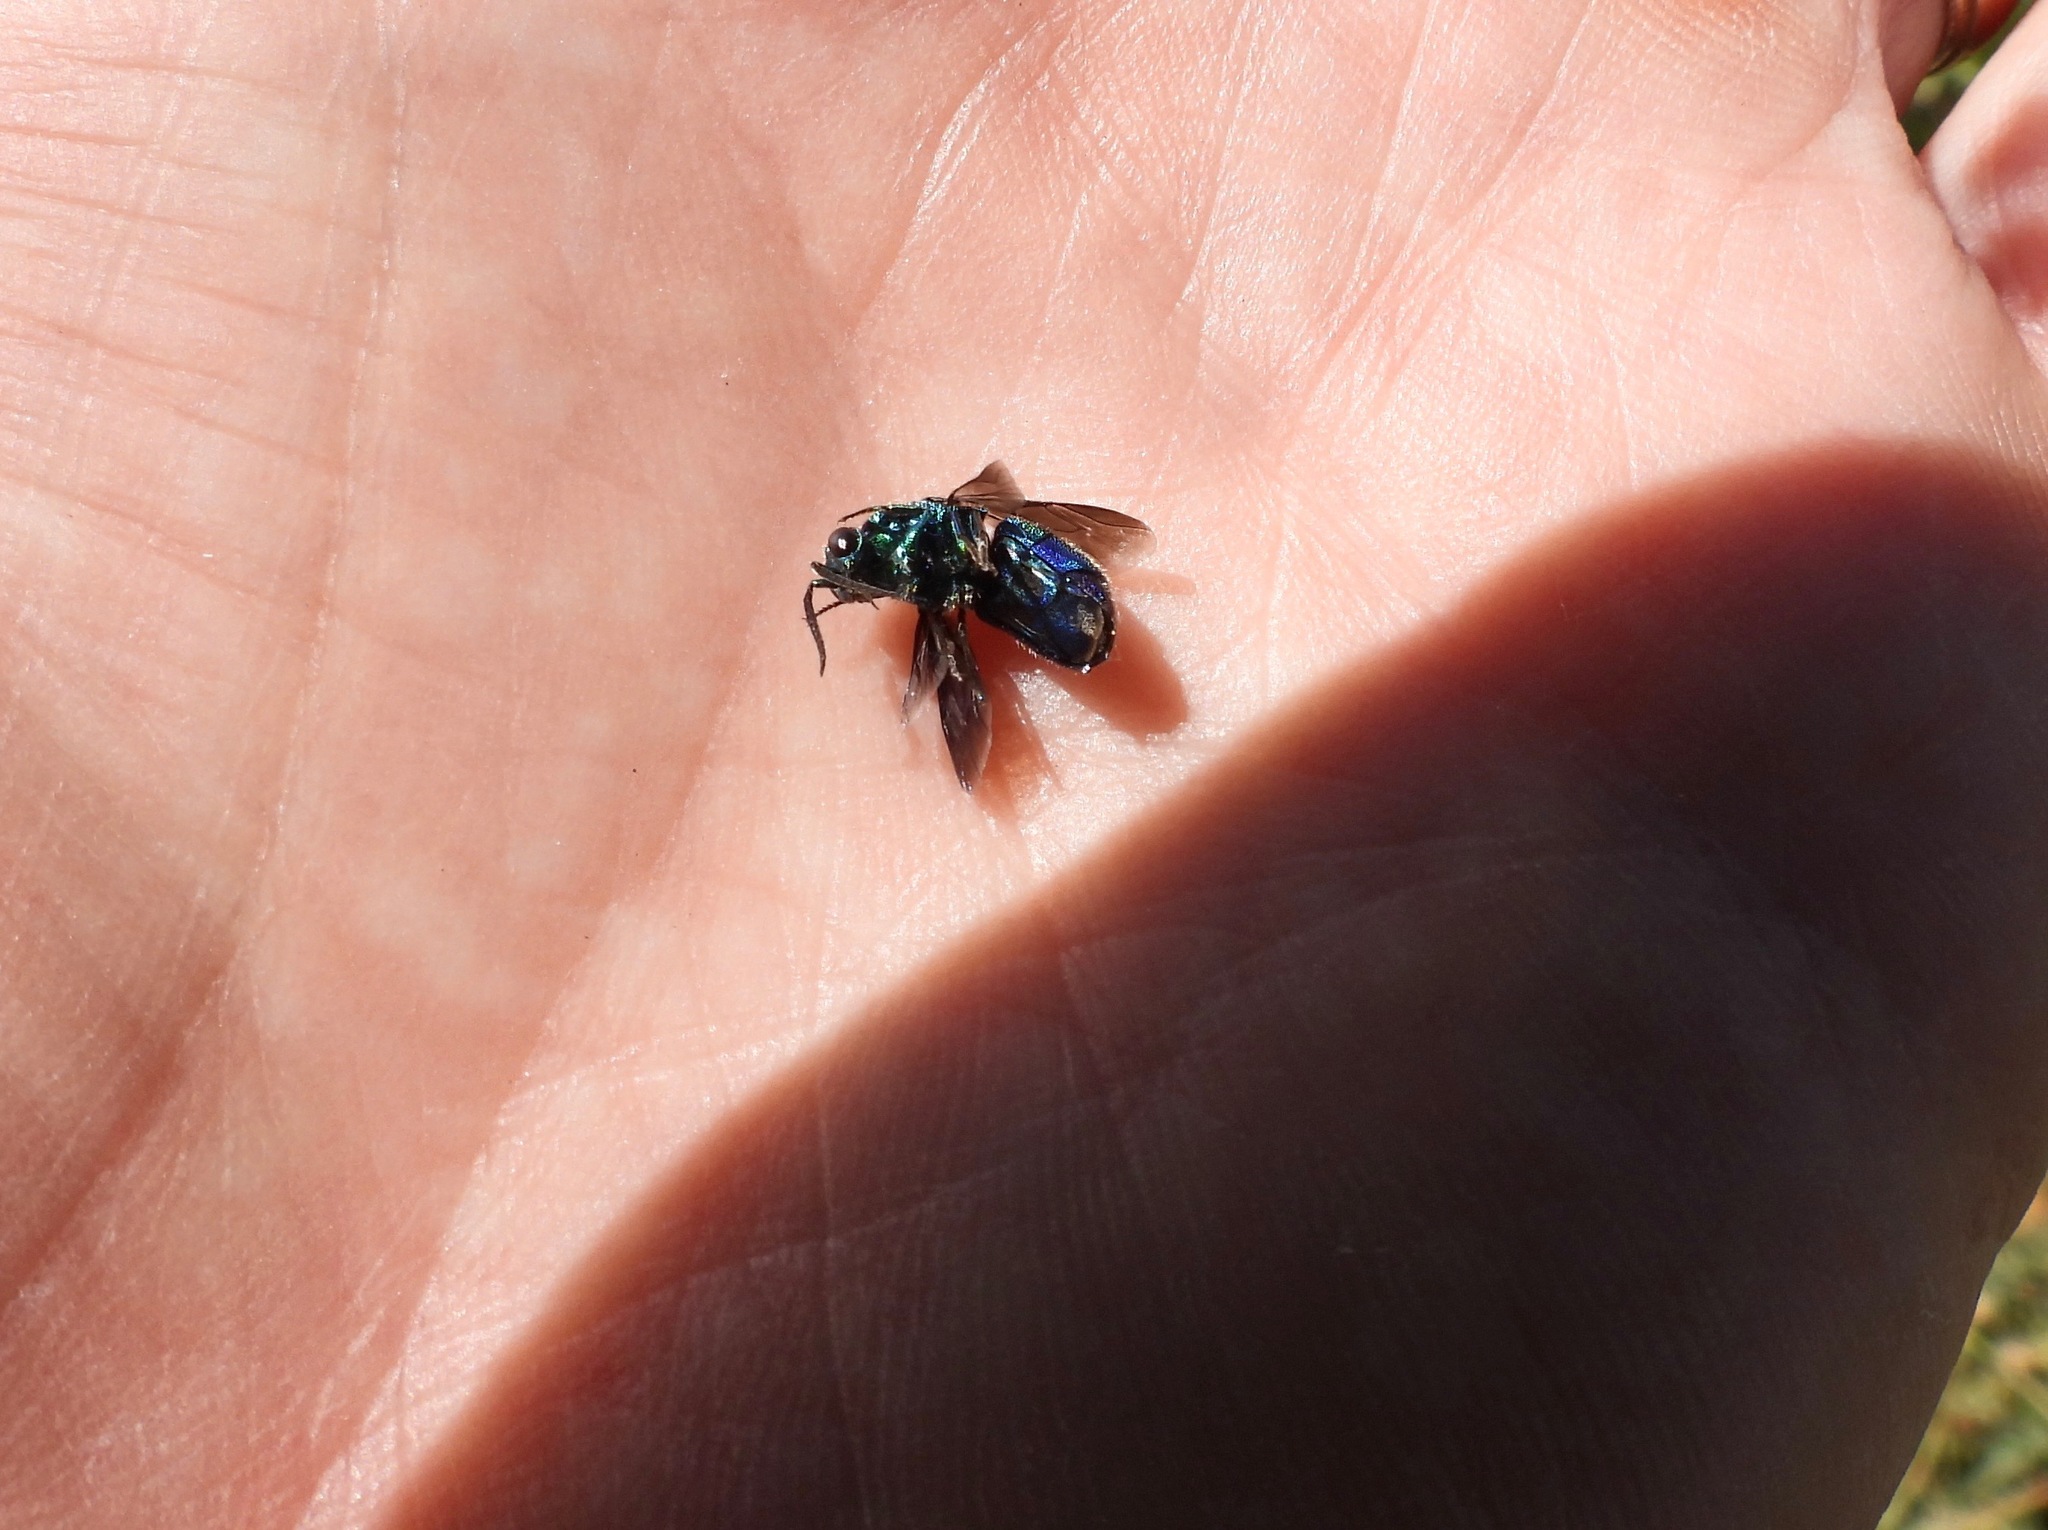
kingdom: Animalia
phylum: Arthropoda
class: Insecta
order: Hymenoptera
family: Chrysididae
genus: Chrysis
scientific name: Chrysis angolensis
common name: Cuckoo wasp
